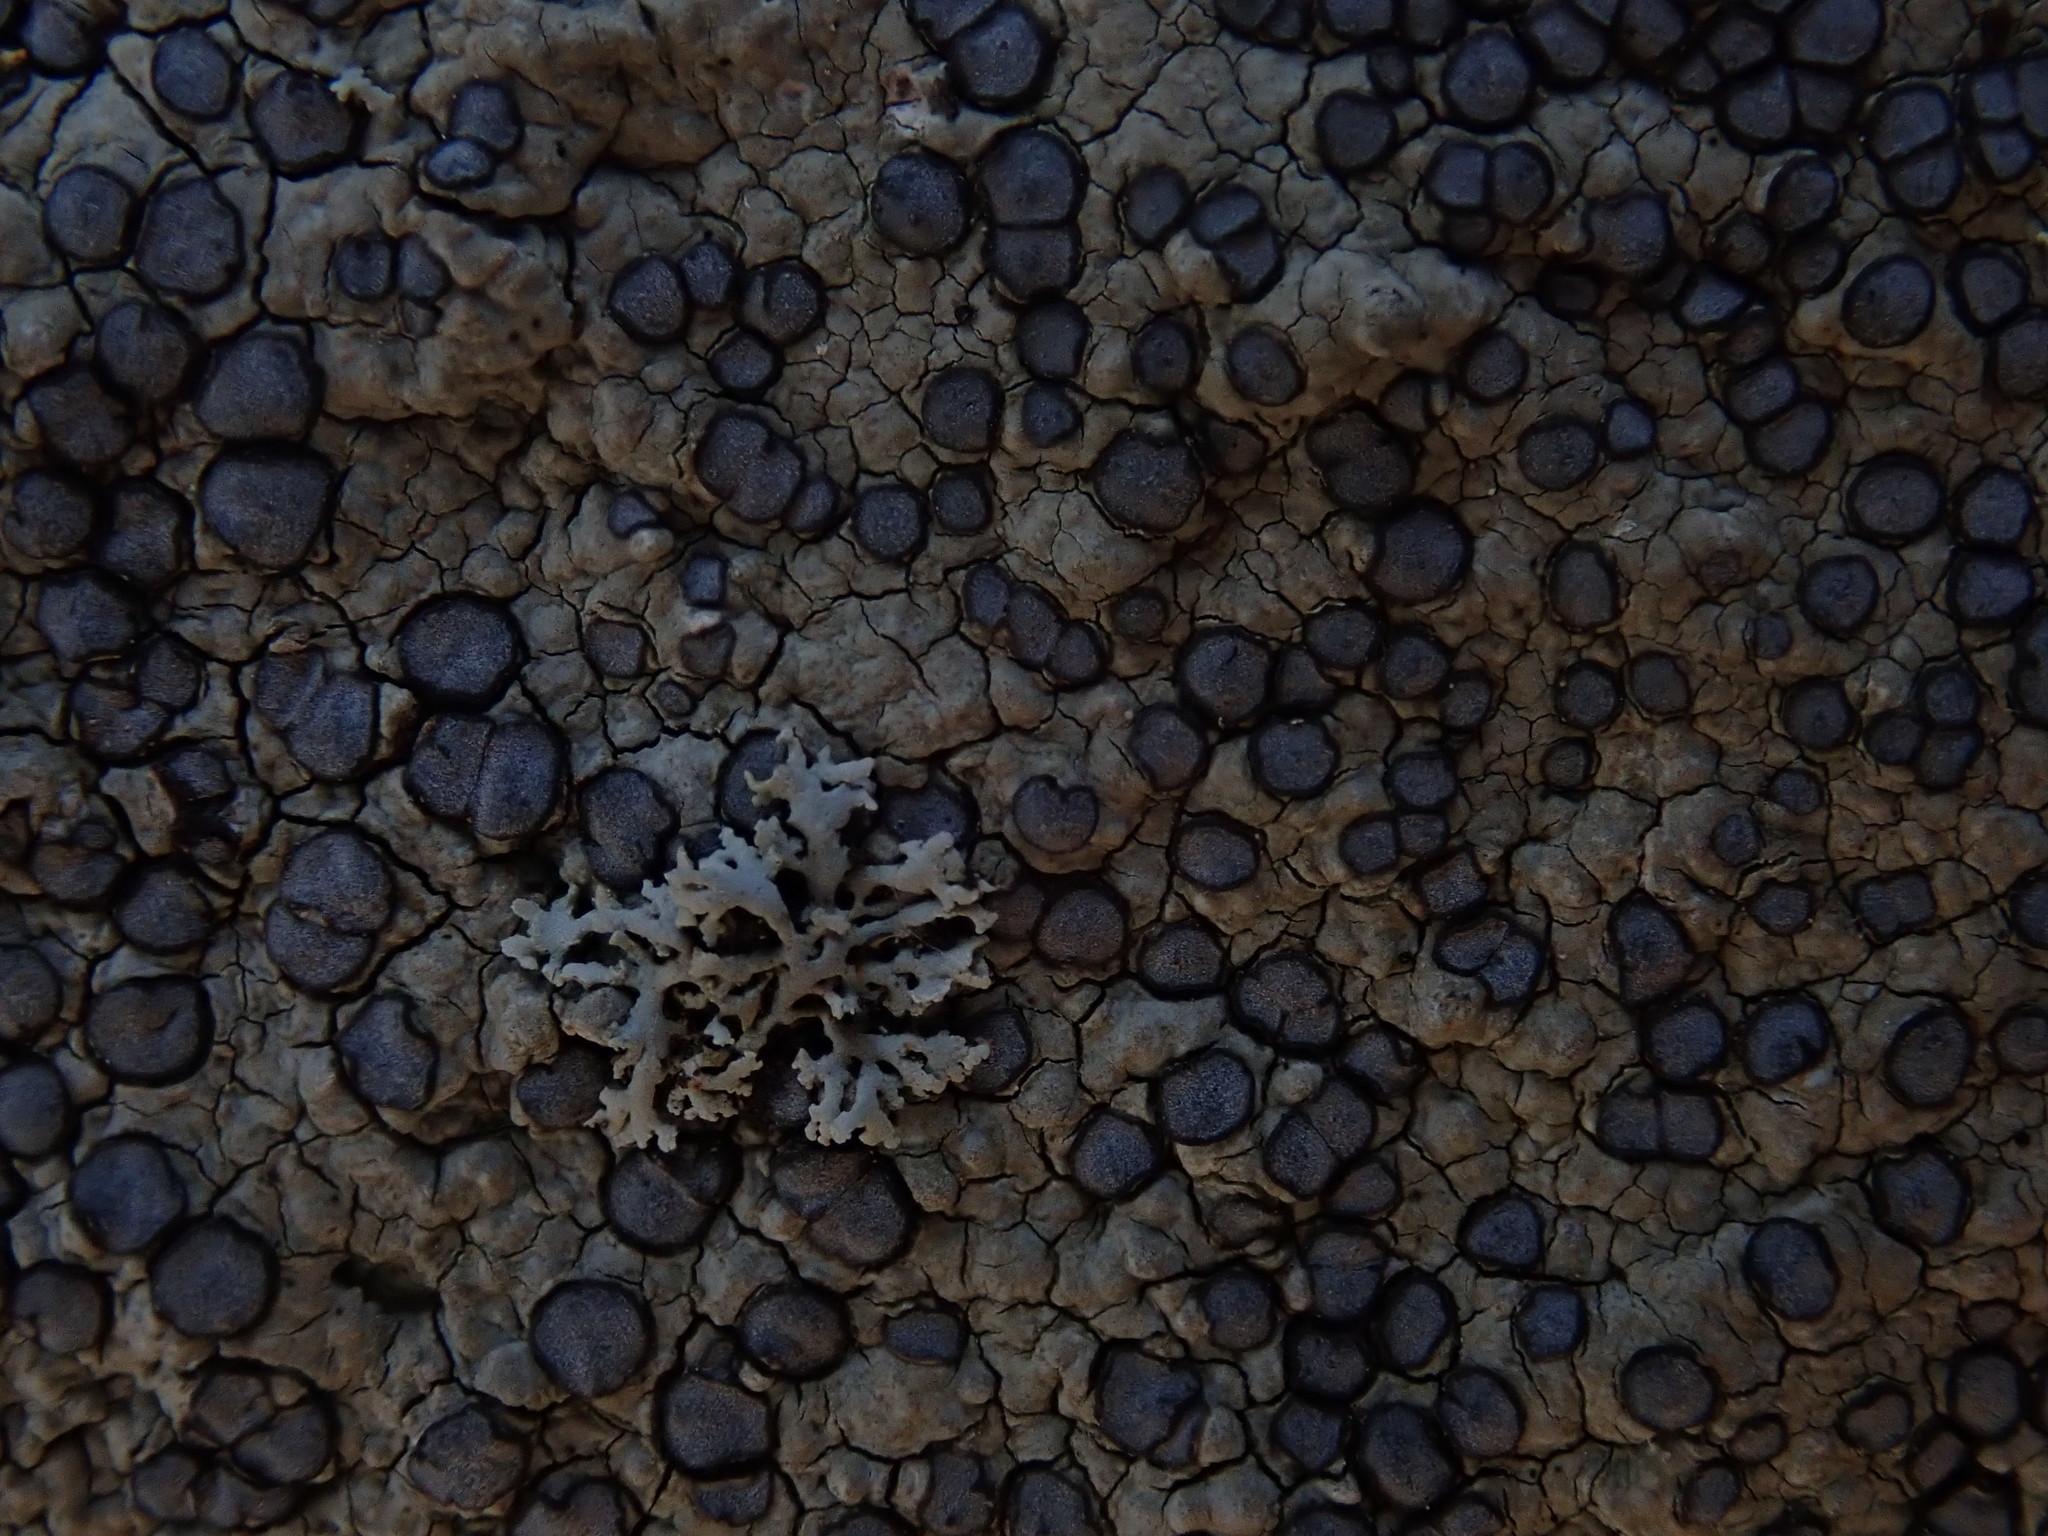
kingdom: Fungi
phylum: Ascomycota
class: Lecanoromycetes
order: Lecideales
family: Lecideaceae
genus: Porpidia
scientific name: Porpidia albocaerulescens
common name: Smokey-eyed boulder lichen
